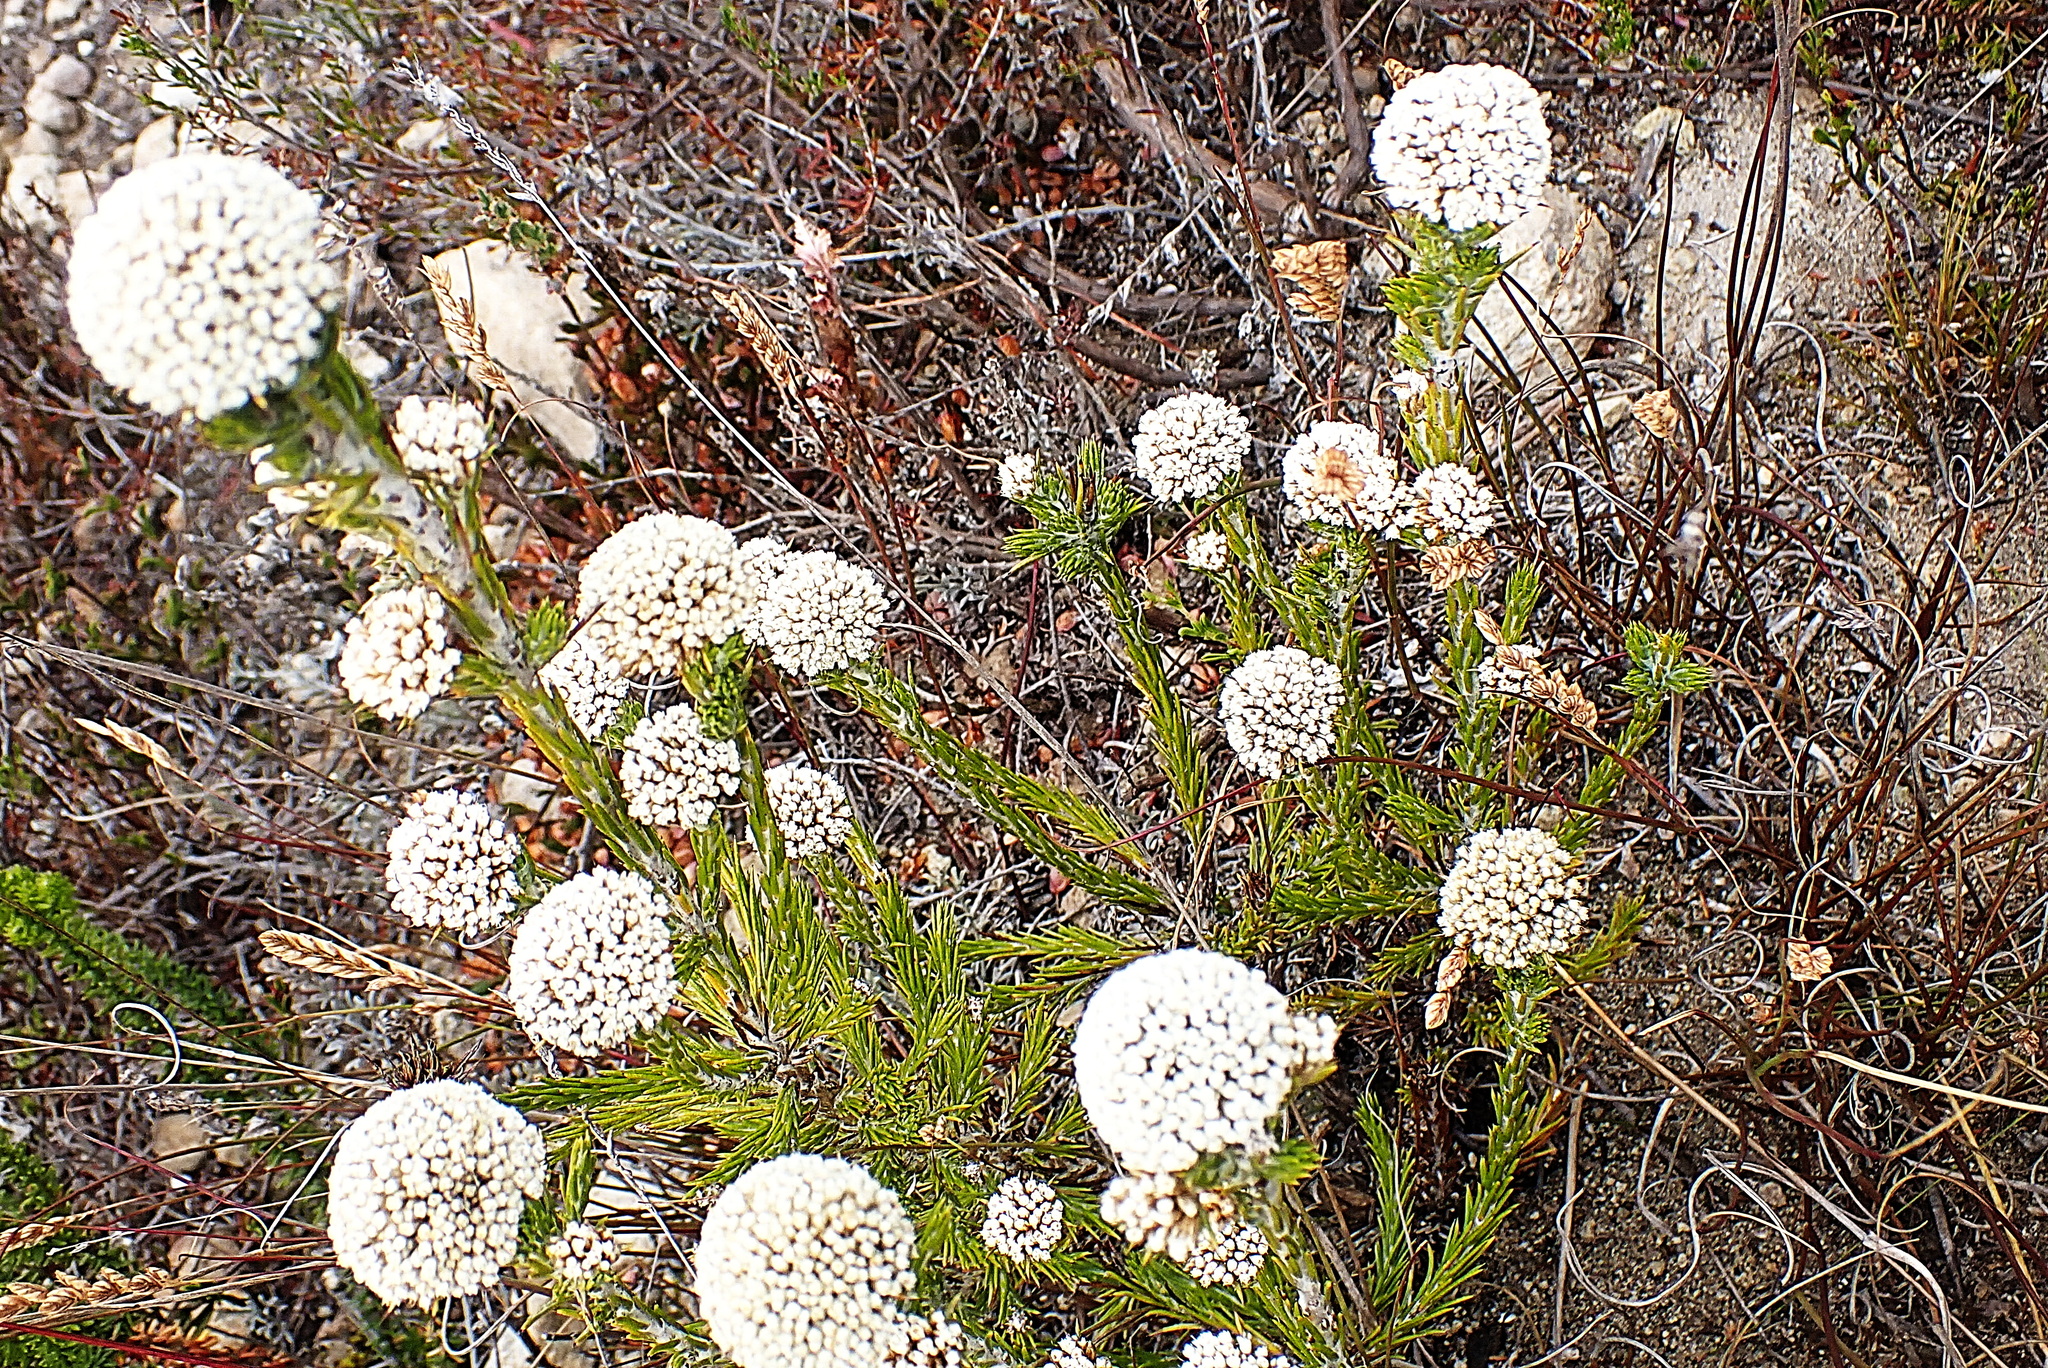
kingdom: Plantae
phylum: Tracheophyta
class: Magnoliopsida
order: Asterales
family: Asteraceae
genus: Metalasia
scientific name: Metalasia erectifolia
